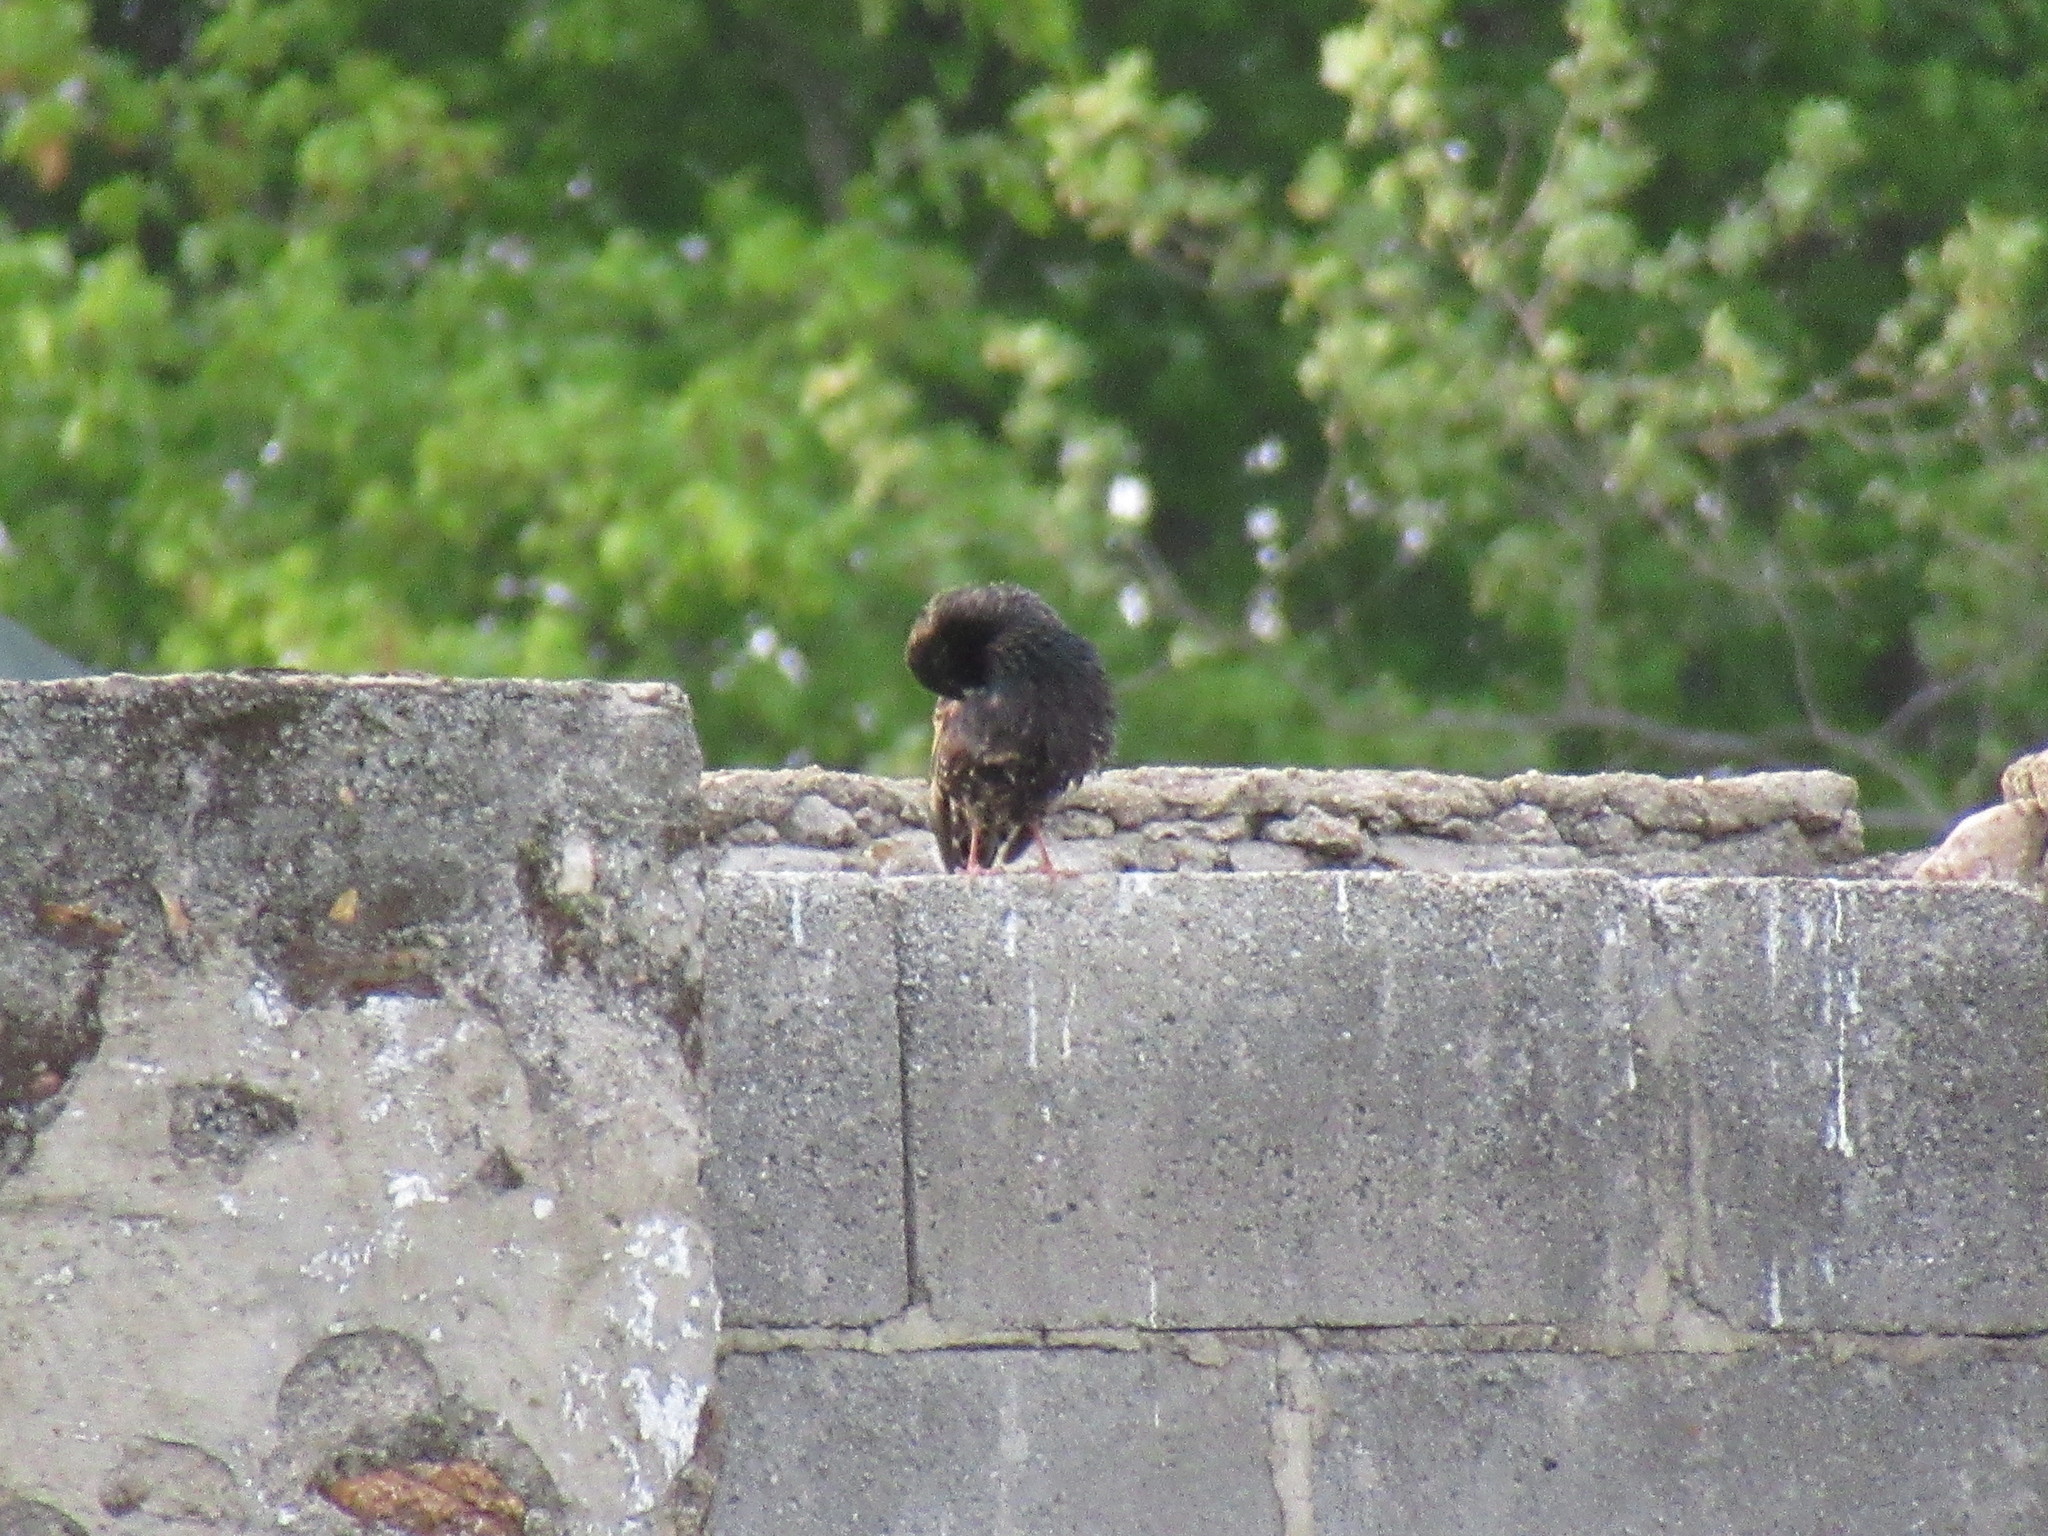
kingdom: Animalia
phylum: Chordata
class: Aves
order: Passeriformes
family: Sturnidae
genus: Sturnus
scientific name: Sturnus vulgaris
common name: Common starling
